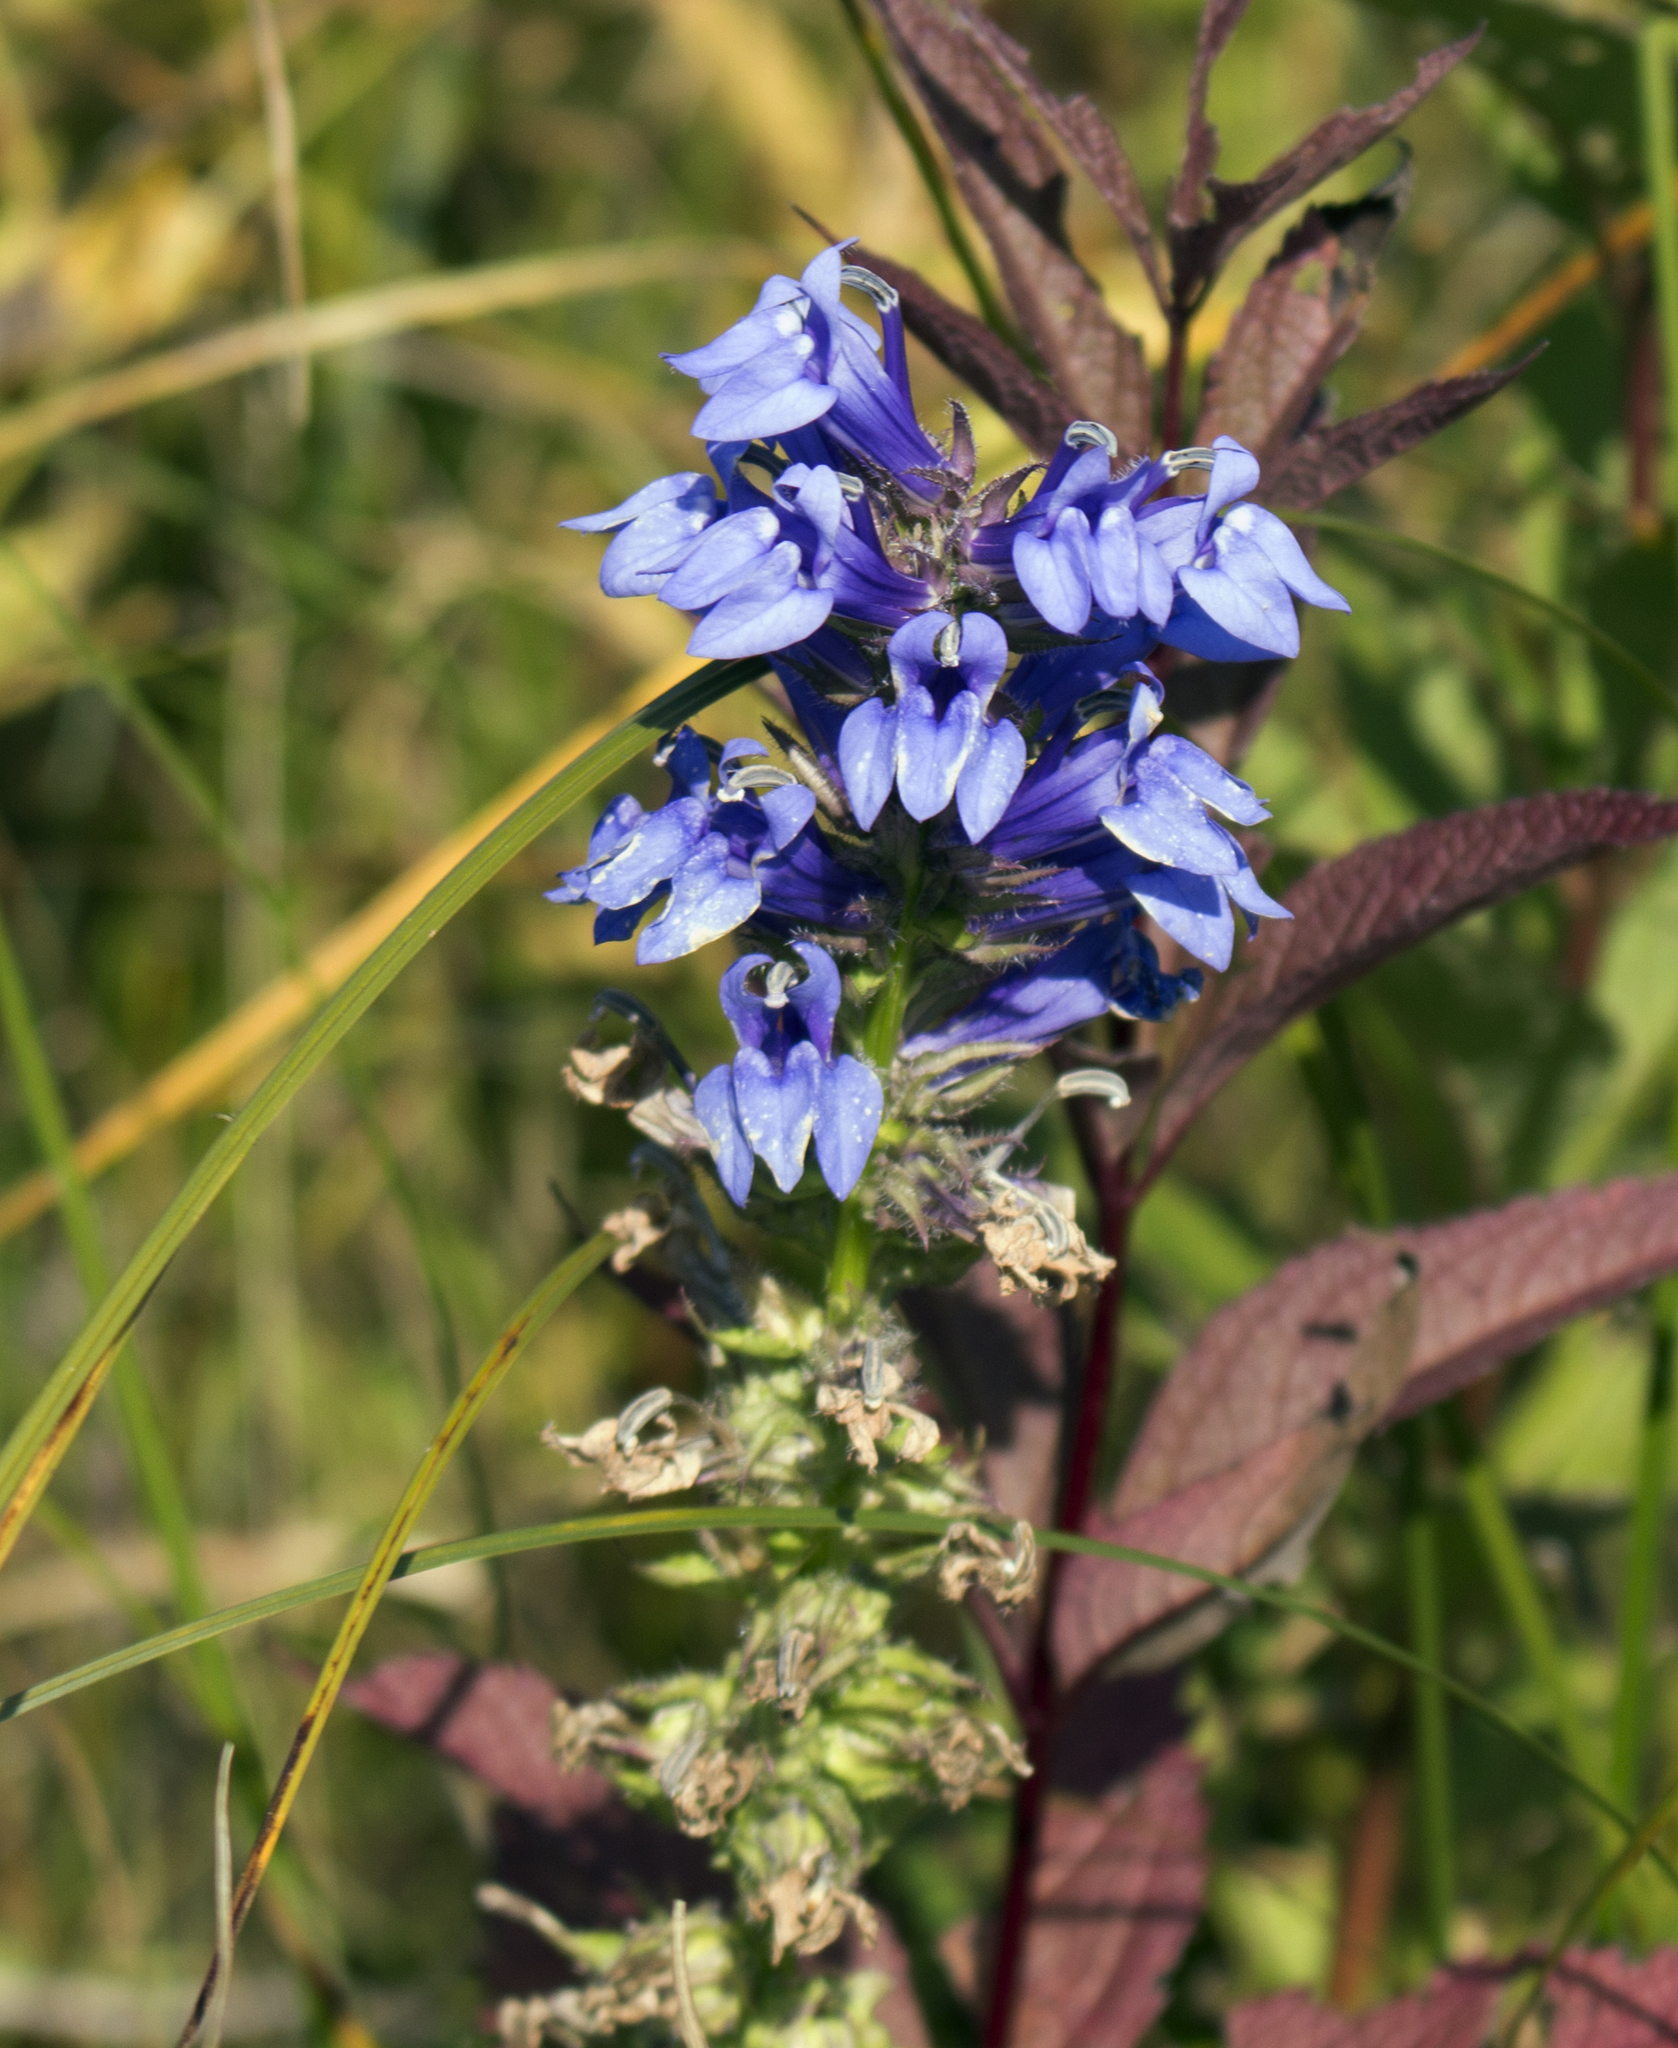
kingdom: Plantae
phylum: Tracheophyta
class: Magnoliopsida
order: Asterales
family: Campanulaceae
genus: Lobelia
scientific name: Lobelia siphilitica
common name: Great lobelia
